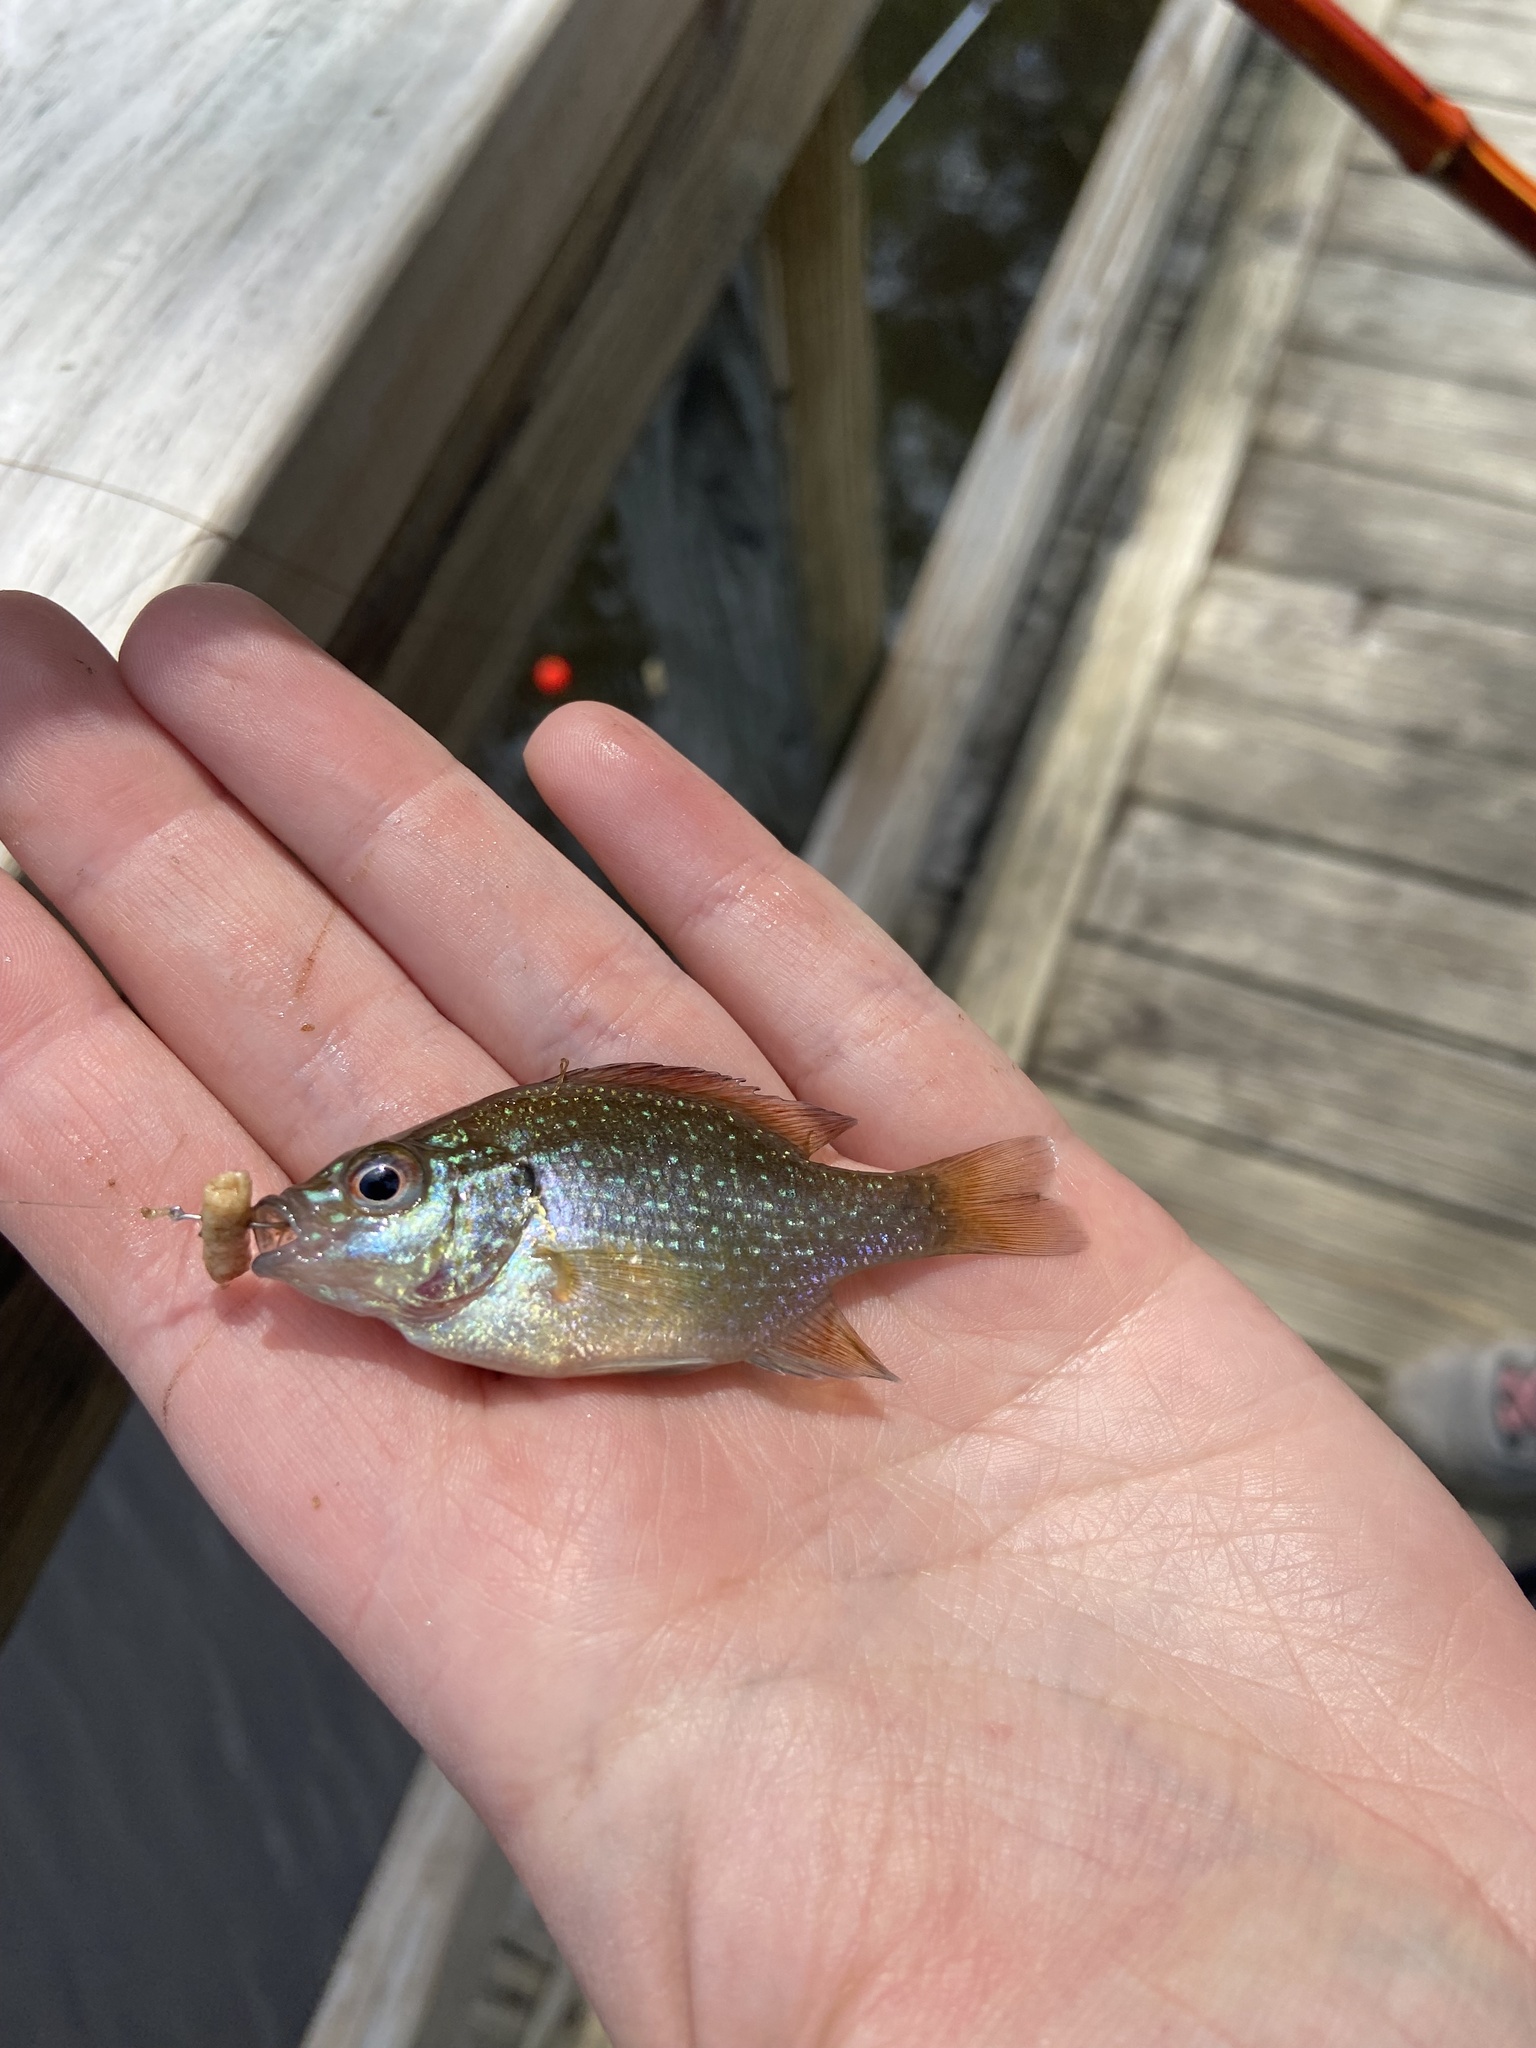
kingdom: Animalia
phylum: Chordata
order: Perciformes
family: Centrarchidae
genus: Lepomis
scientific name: Lepomis marginatus
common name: Dollar sunfish
